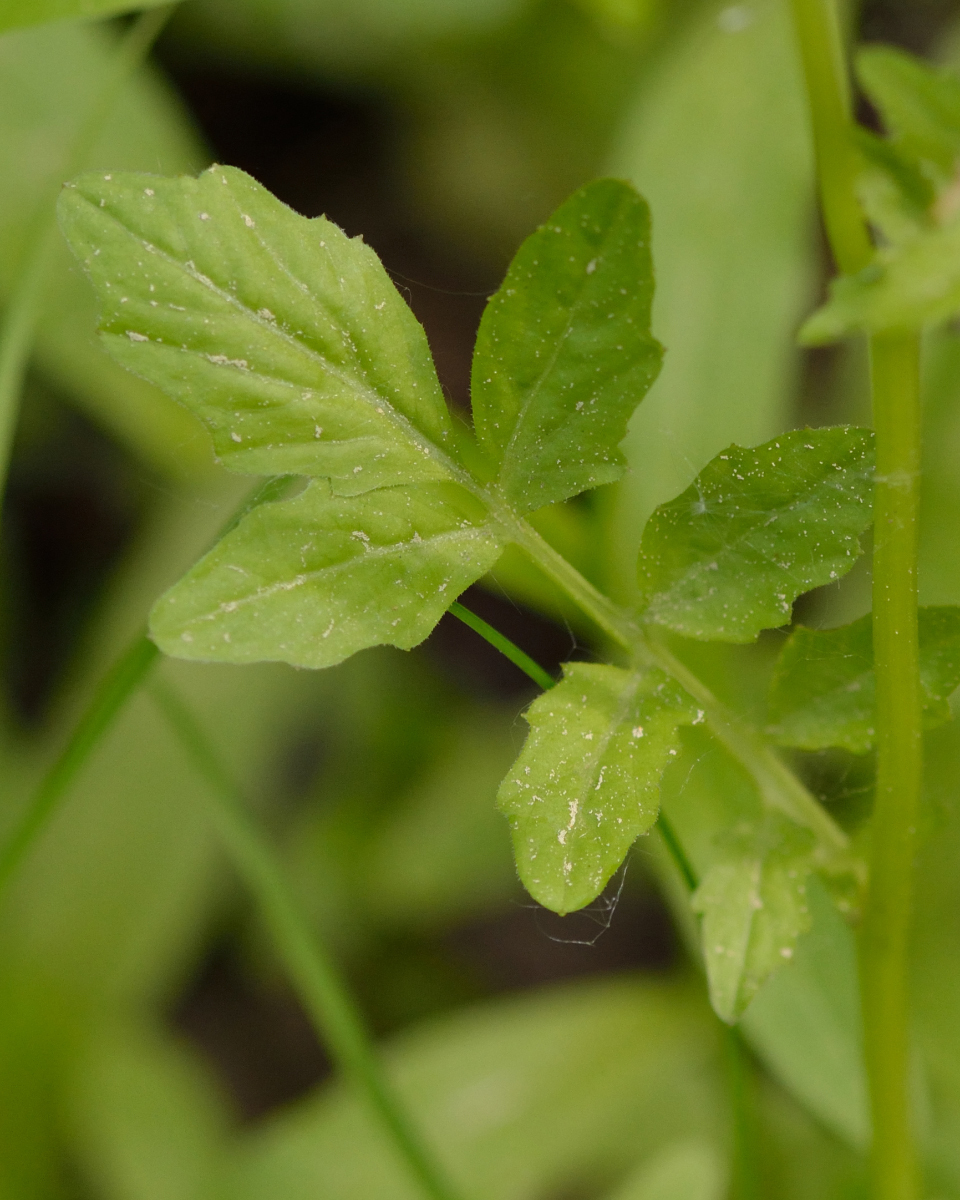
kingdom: Plantae
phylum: Tracheophyta
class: Magnoliopsida
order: Brassicales
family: Brassicaceae
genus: Cardamine
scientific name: Cardamine amara
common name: Large bitter-cress
